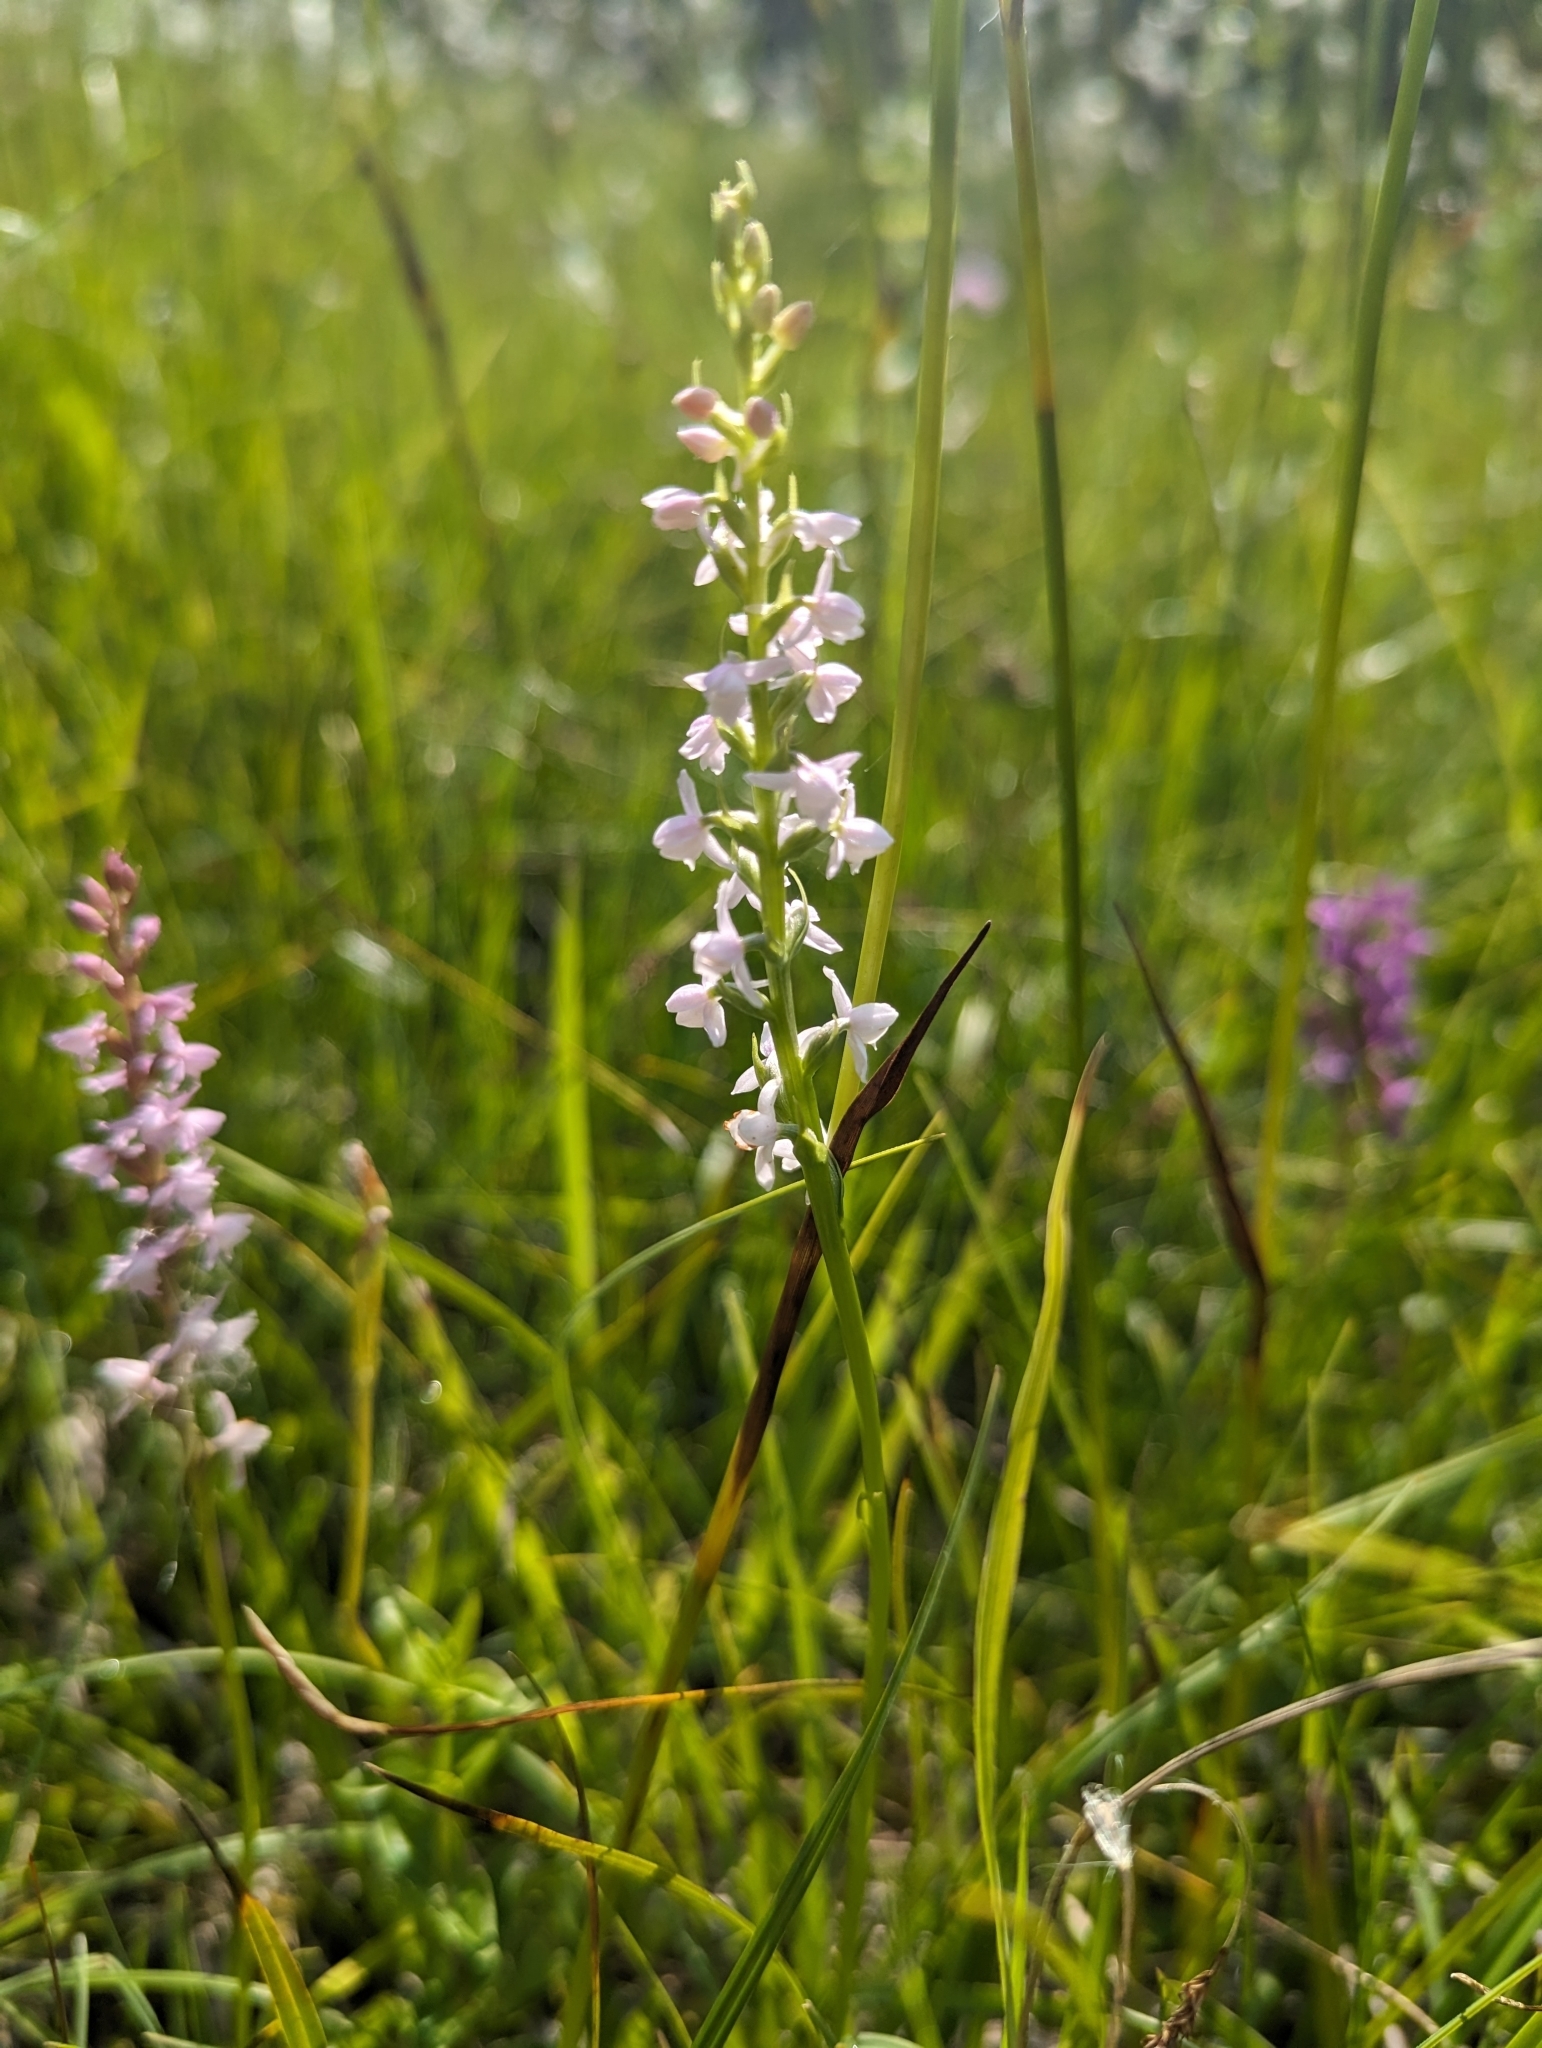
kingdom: Plantae
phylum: Tracheophyta
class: Liliopsida
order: Asparagales
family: Orchidaceae
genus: Gymnadenia
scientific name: Gymnadenia odoratissima
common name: Scented gymnadenia
